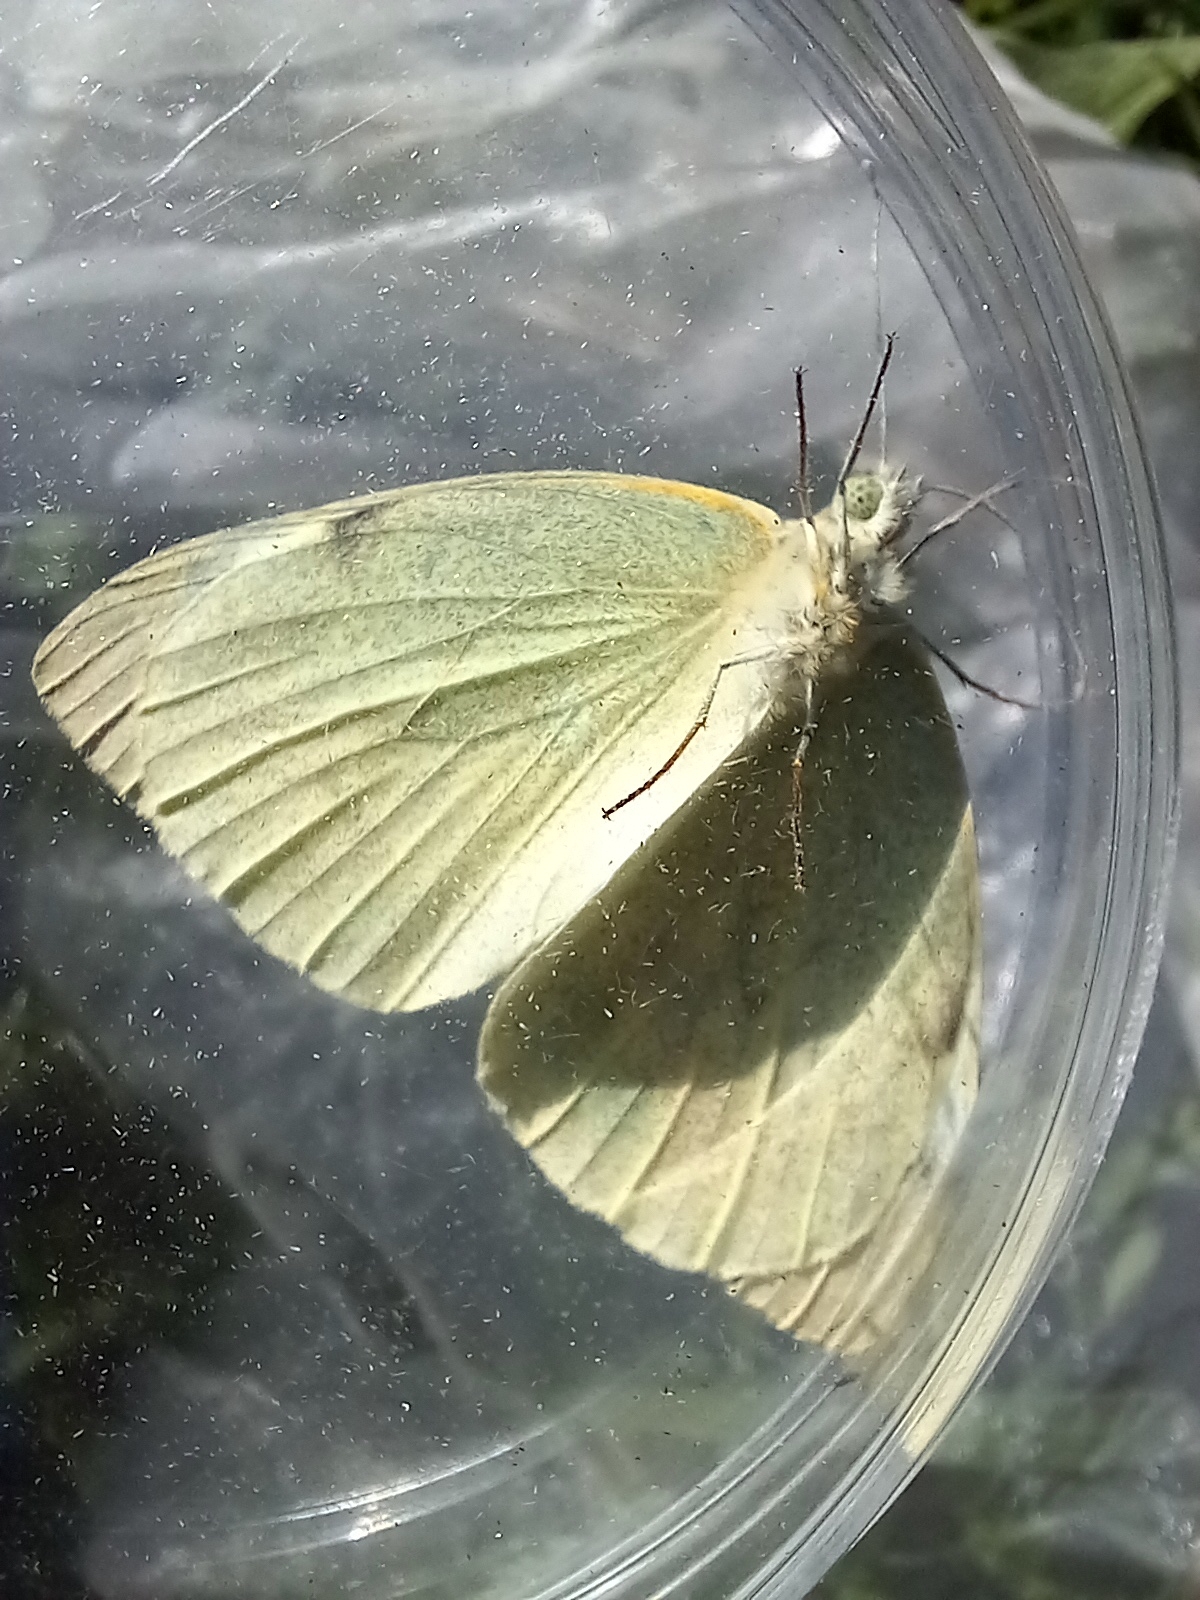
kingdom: Animalia
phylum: Arthropoda
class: Insecta
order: Lepidoptera
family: Pieridae
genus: Pieris
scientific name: Pieris brassicae
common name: Large white
